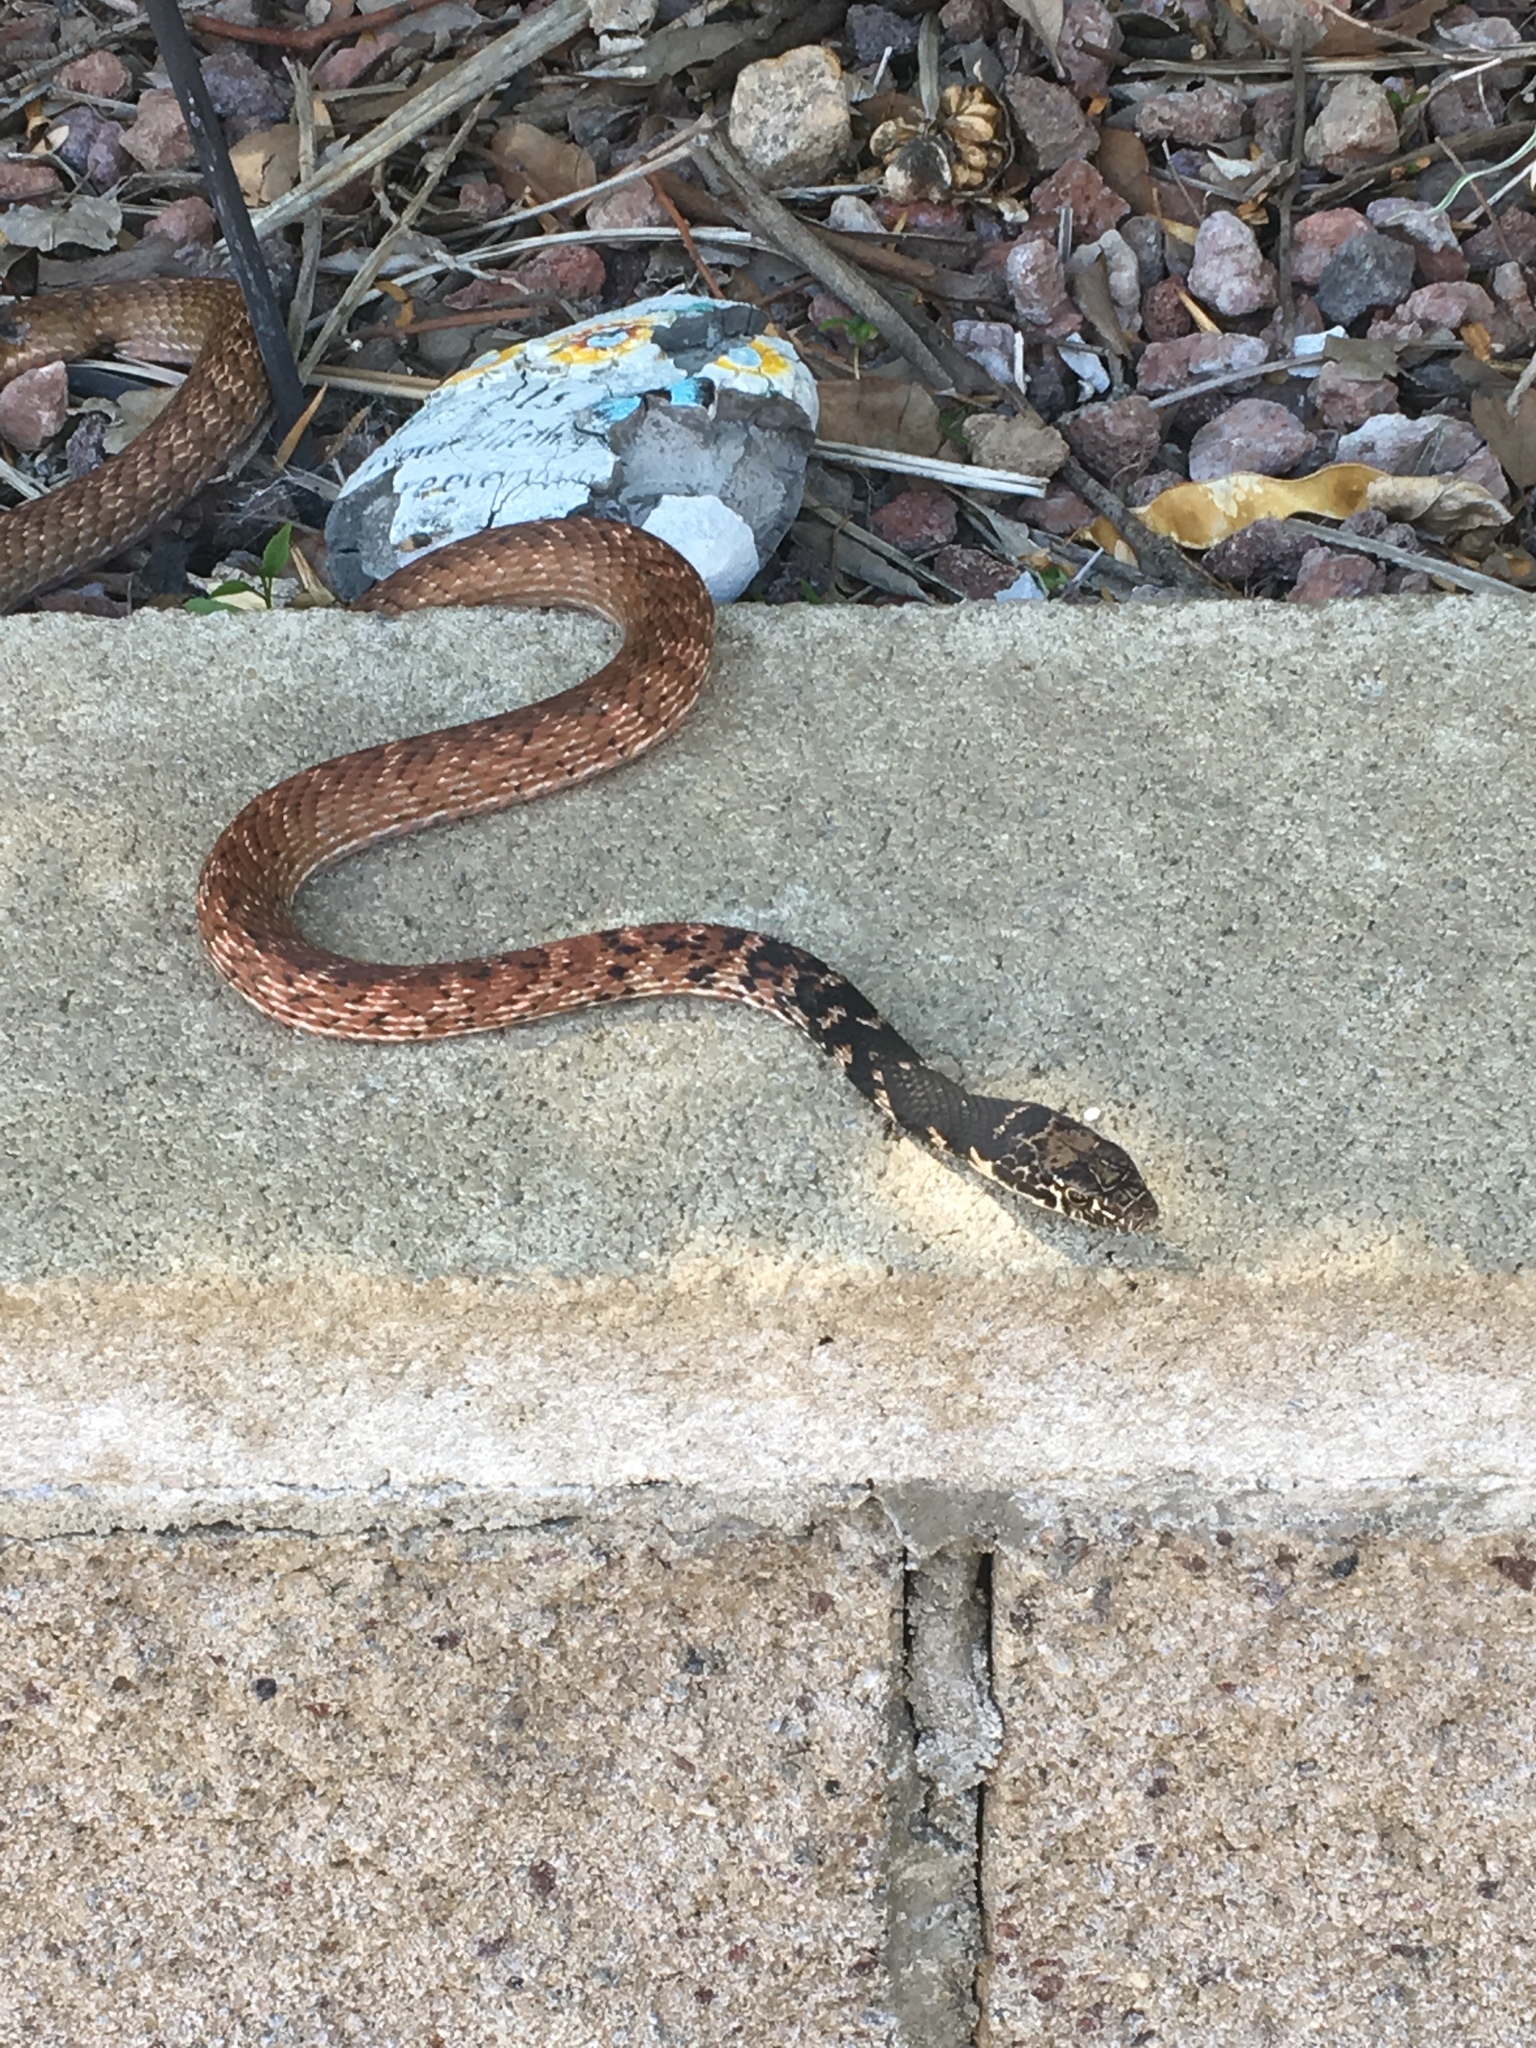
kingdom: Animalia
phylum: Chordata
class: Squamata
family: Colubridae
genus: Masticophis
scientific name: Masticophis flagellum
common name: Coachwhip
